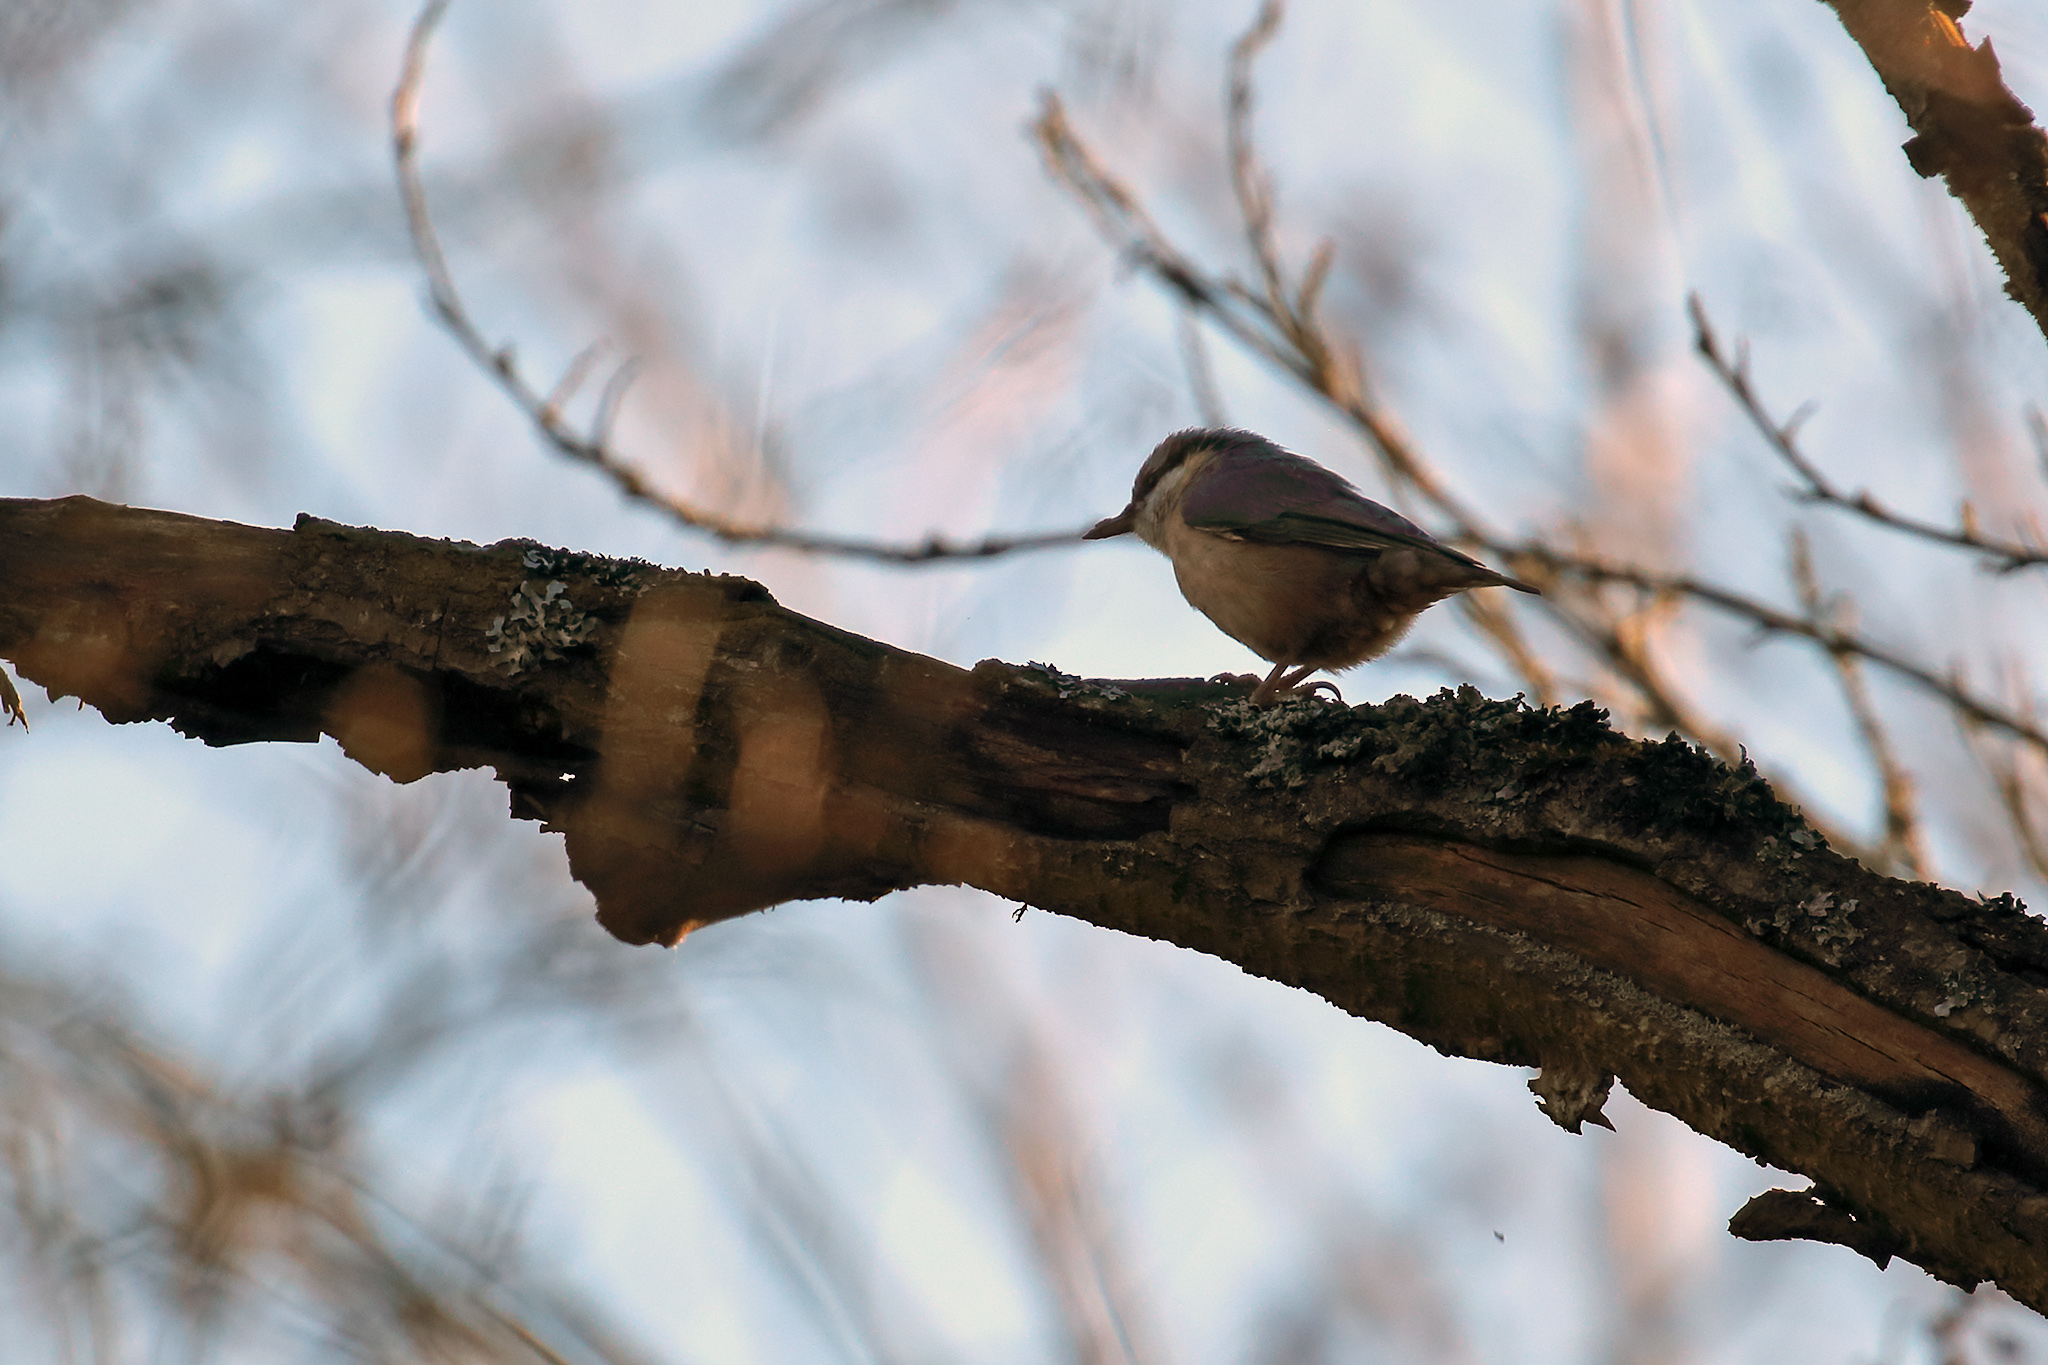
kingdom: Animalia
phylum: Chordata
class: Aves
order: Passeriformes
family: Sittidae
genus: Sitta
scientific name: Sitta europaea
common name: Eurasian nuthatch
